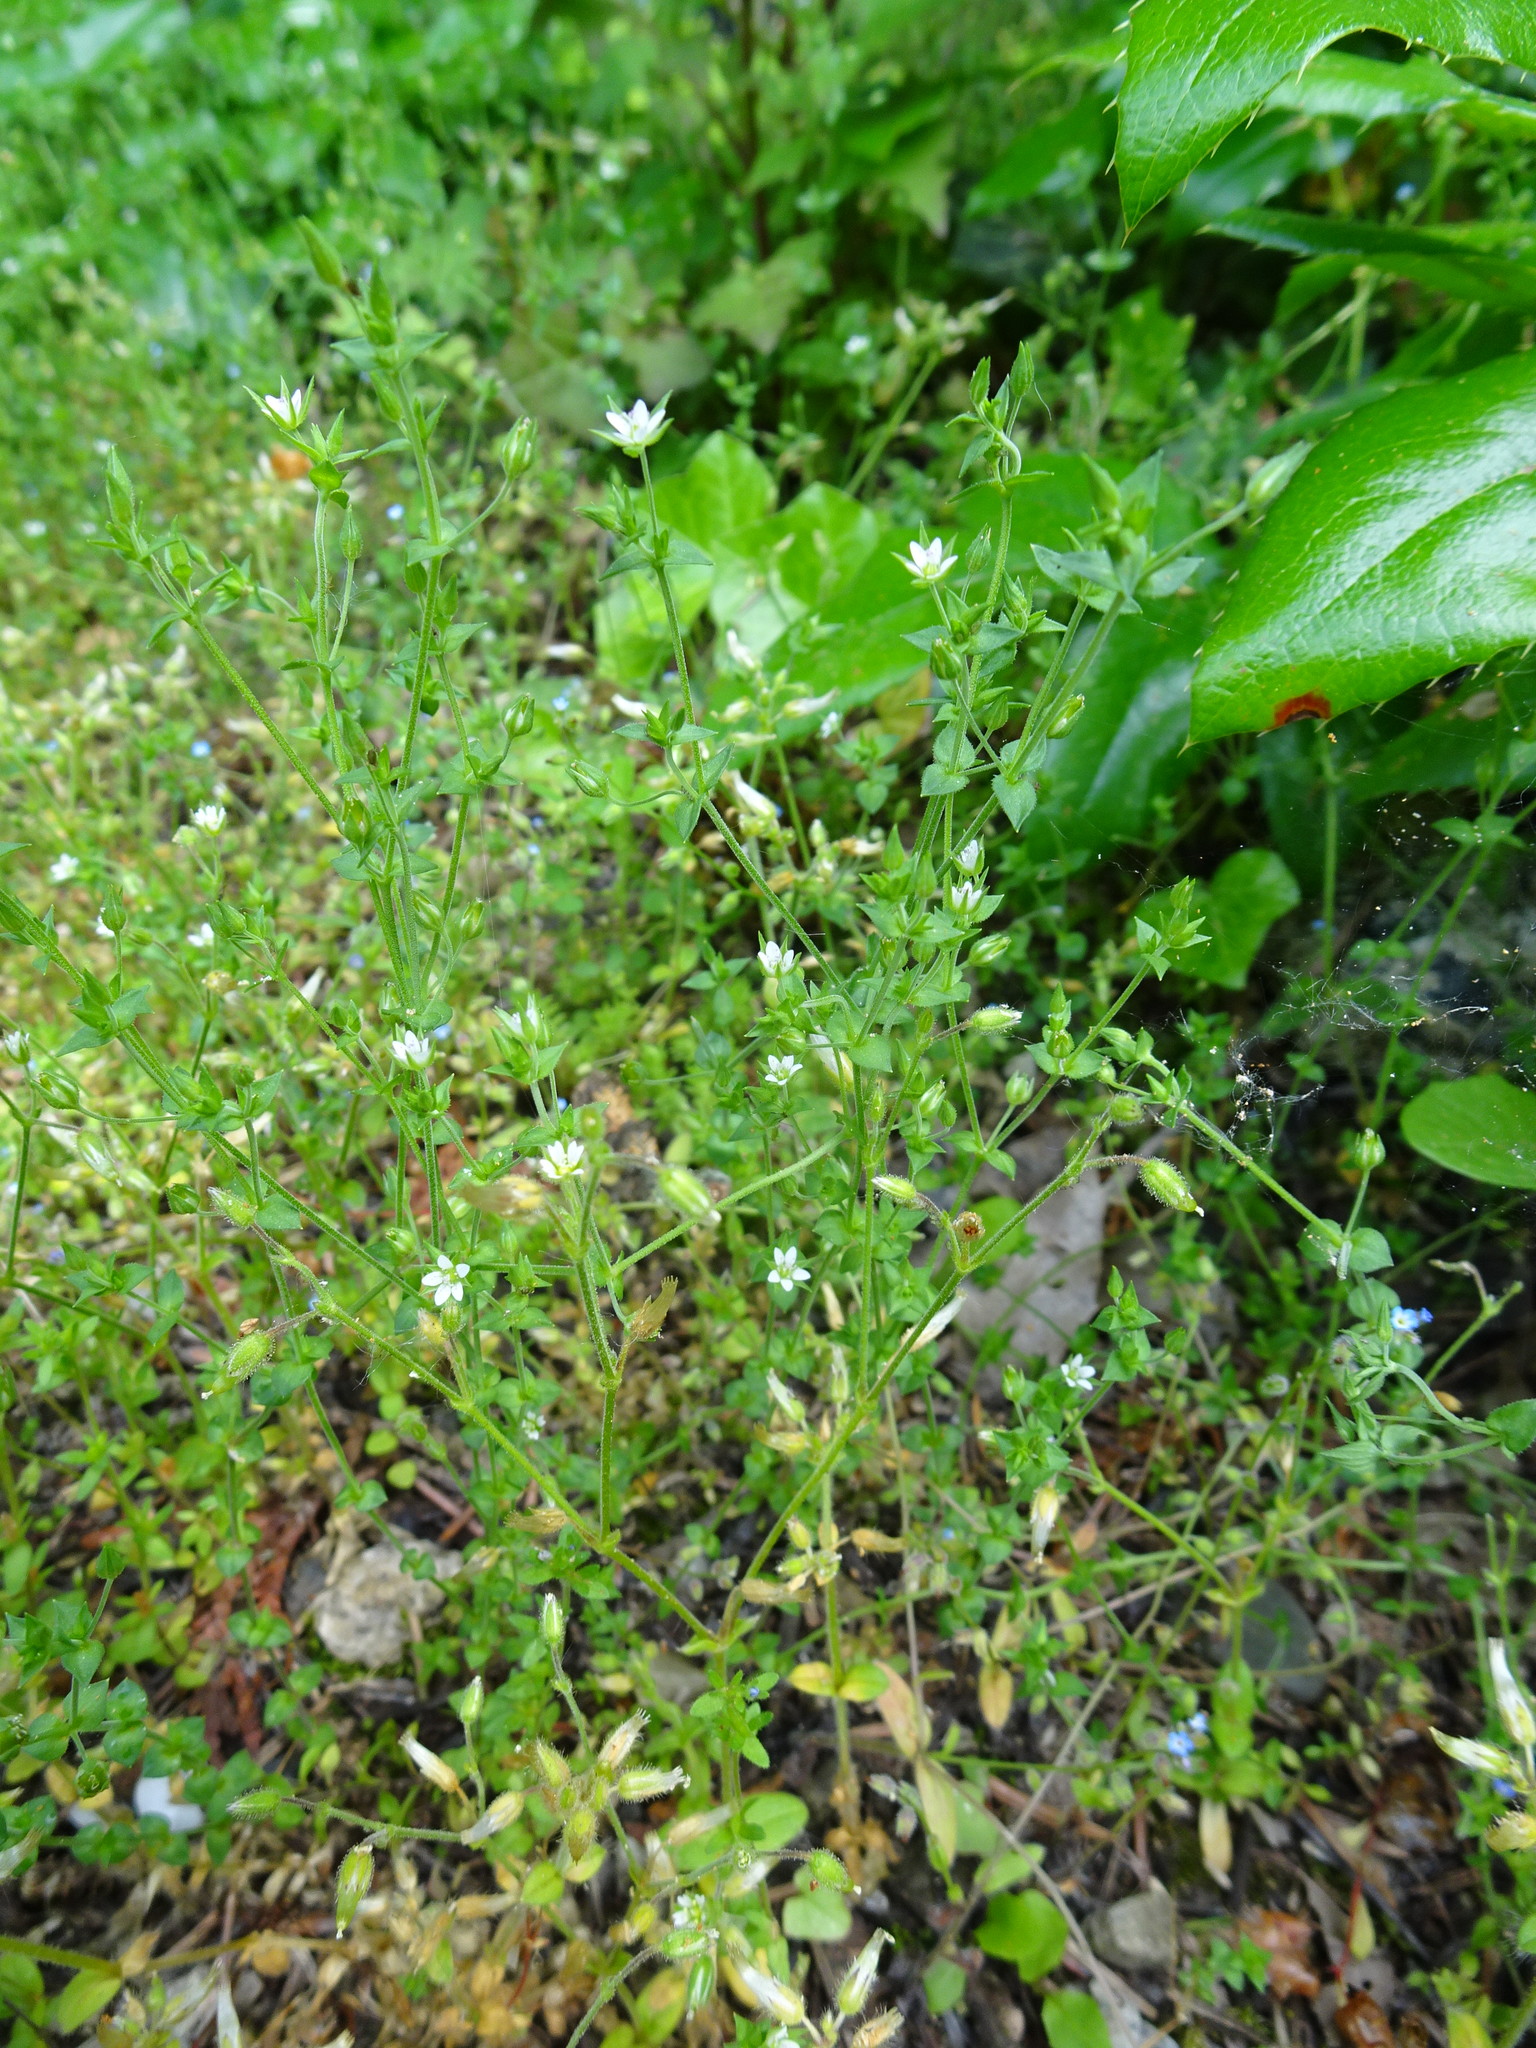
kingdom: Plantae
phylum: Tracheophyta
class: Magnoliopsida
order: Caryophyllales
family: Caryophyllaceae
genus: Arenaria
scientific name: Arenaria serpyllifolia
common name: Thyme-leaved sandwort
